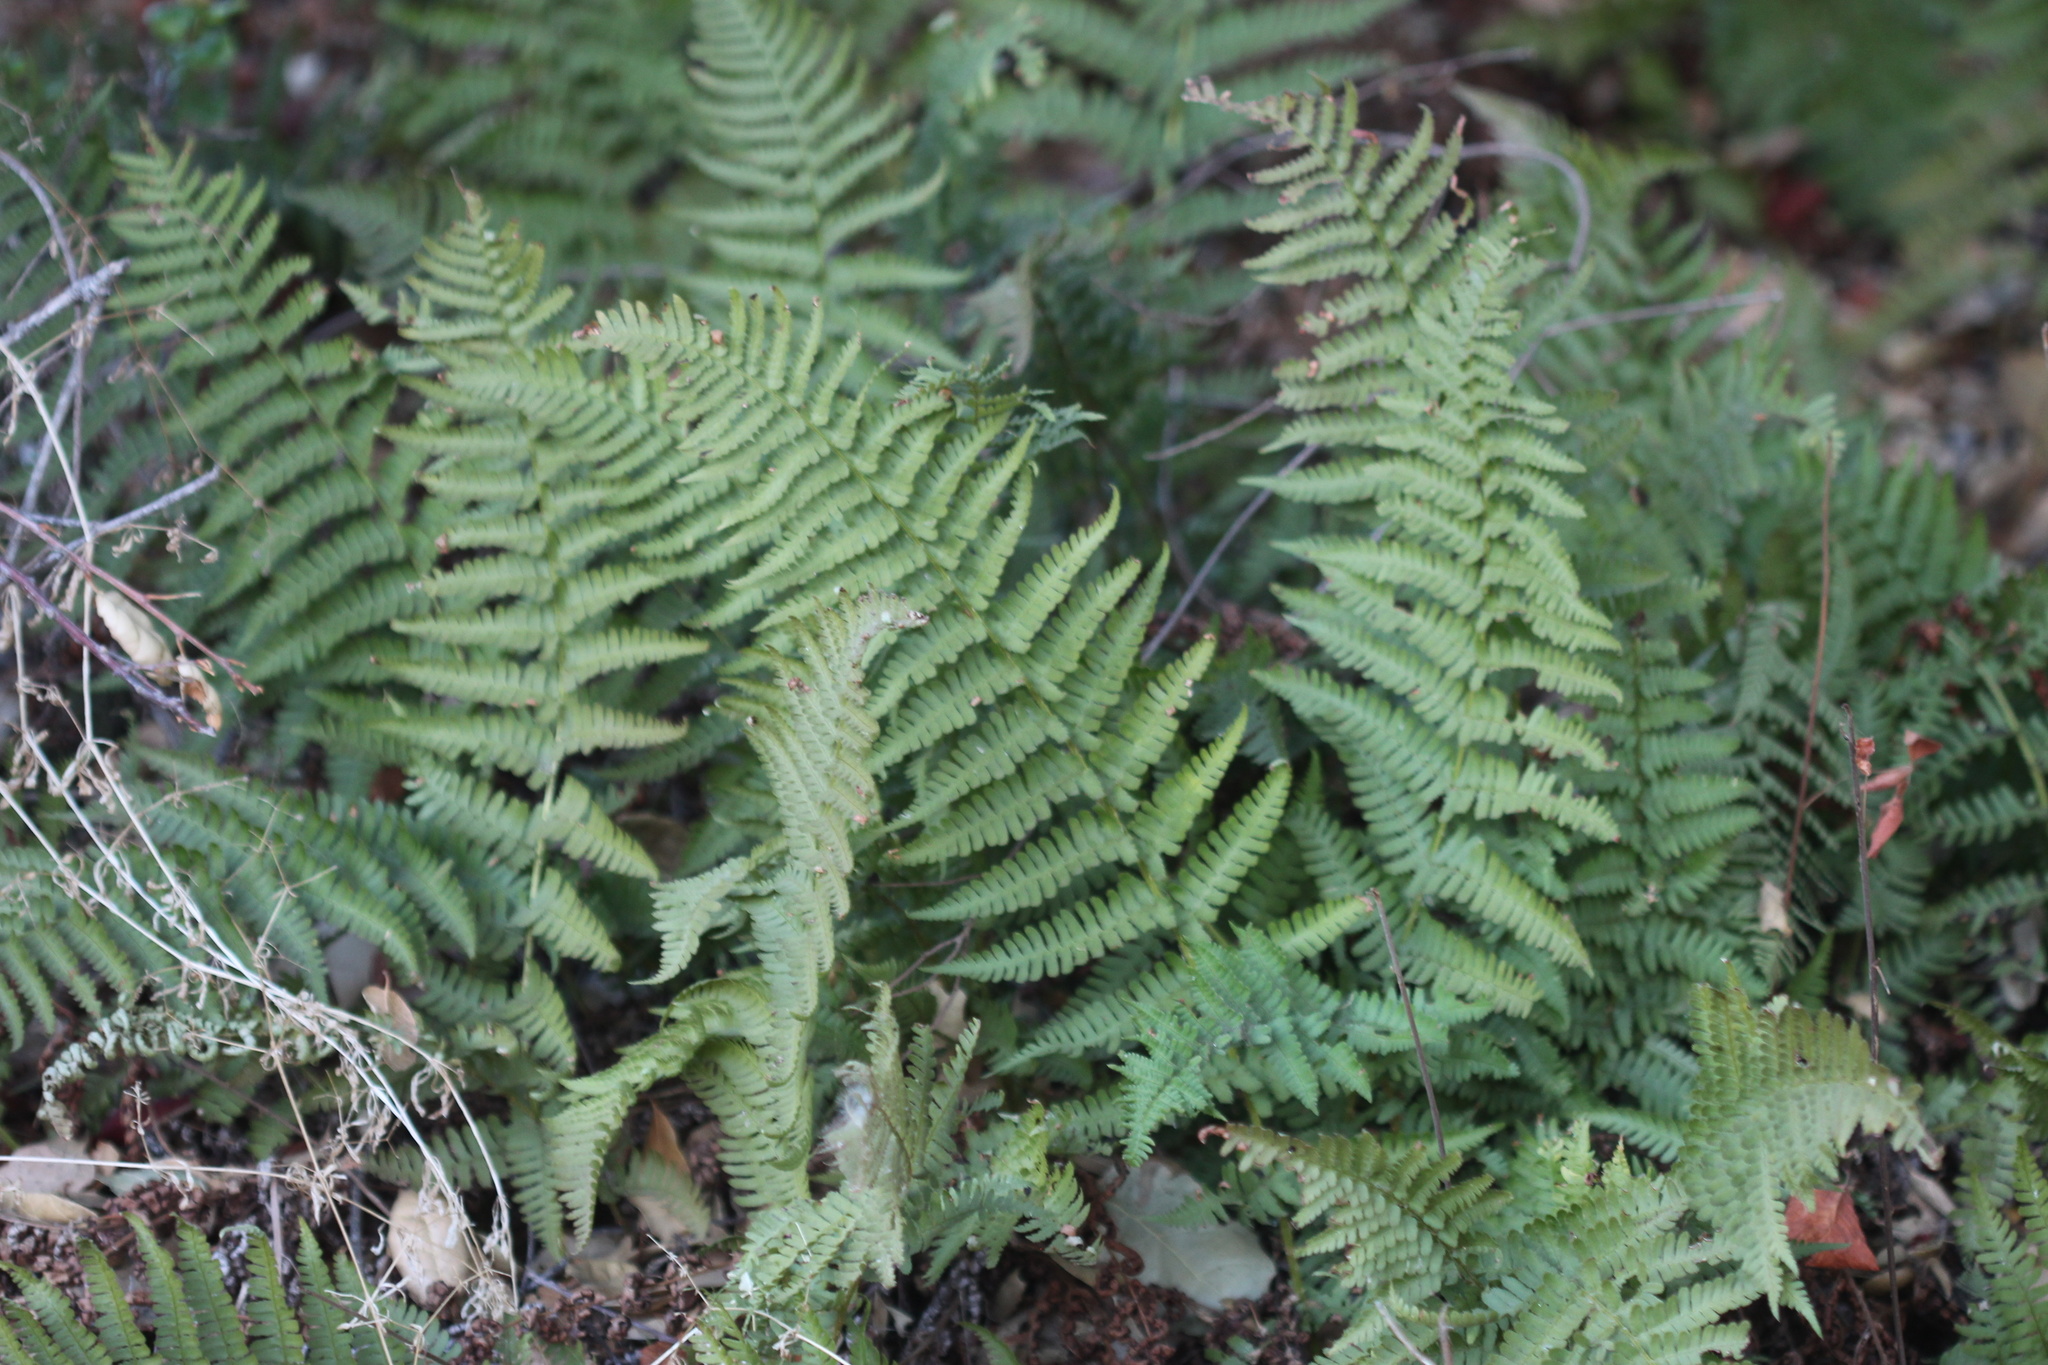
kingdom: Plantae
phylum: Tracheophyta
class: Polypodiopsida
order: Polypodiales
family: Dryopteridaceae
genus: Dryopteris
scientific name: Dryopteris arguta
